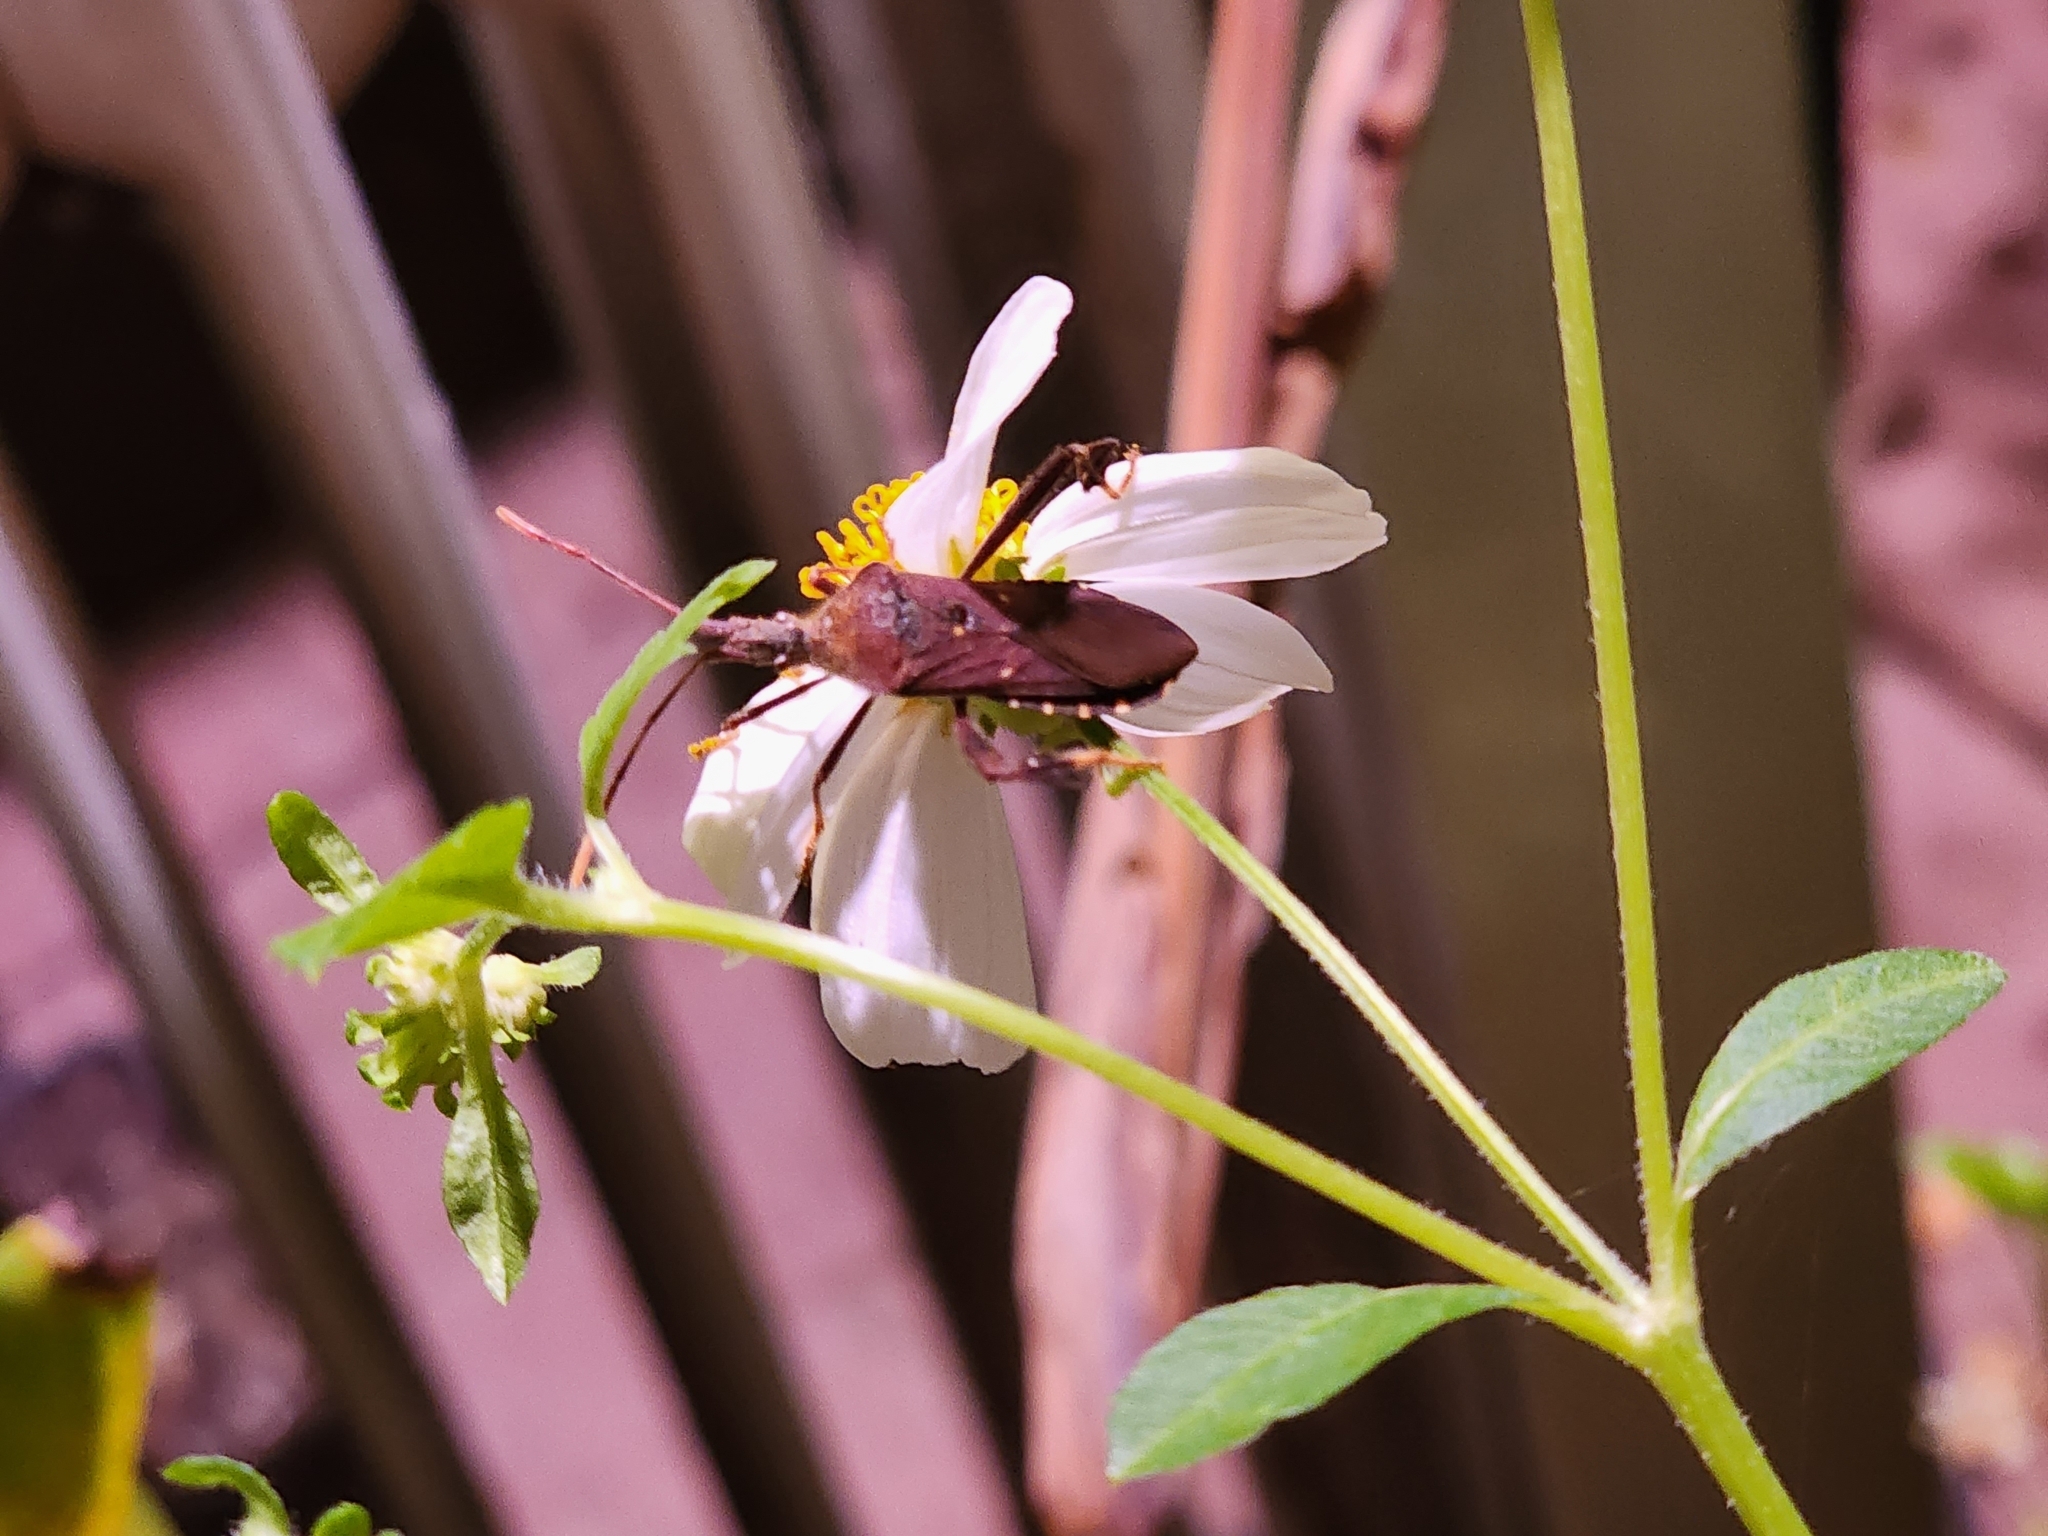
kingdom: Animalia
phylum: Arthropoda
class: Insecta
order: Hemiptera
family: Coreidae
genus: Leptoglossus
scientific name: Leptoglossus oppositus
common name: Northern leaf-footed bug
